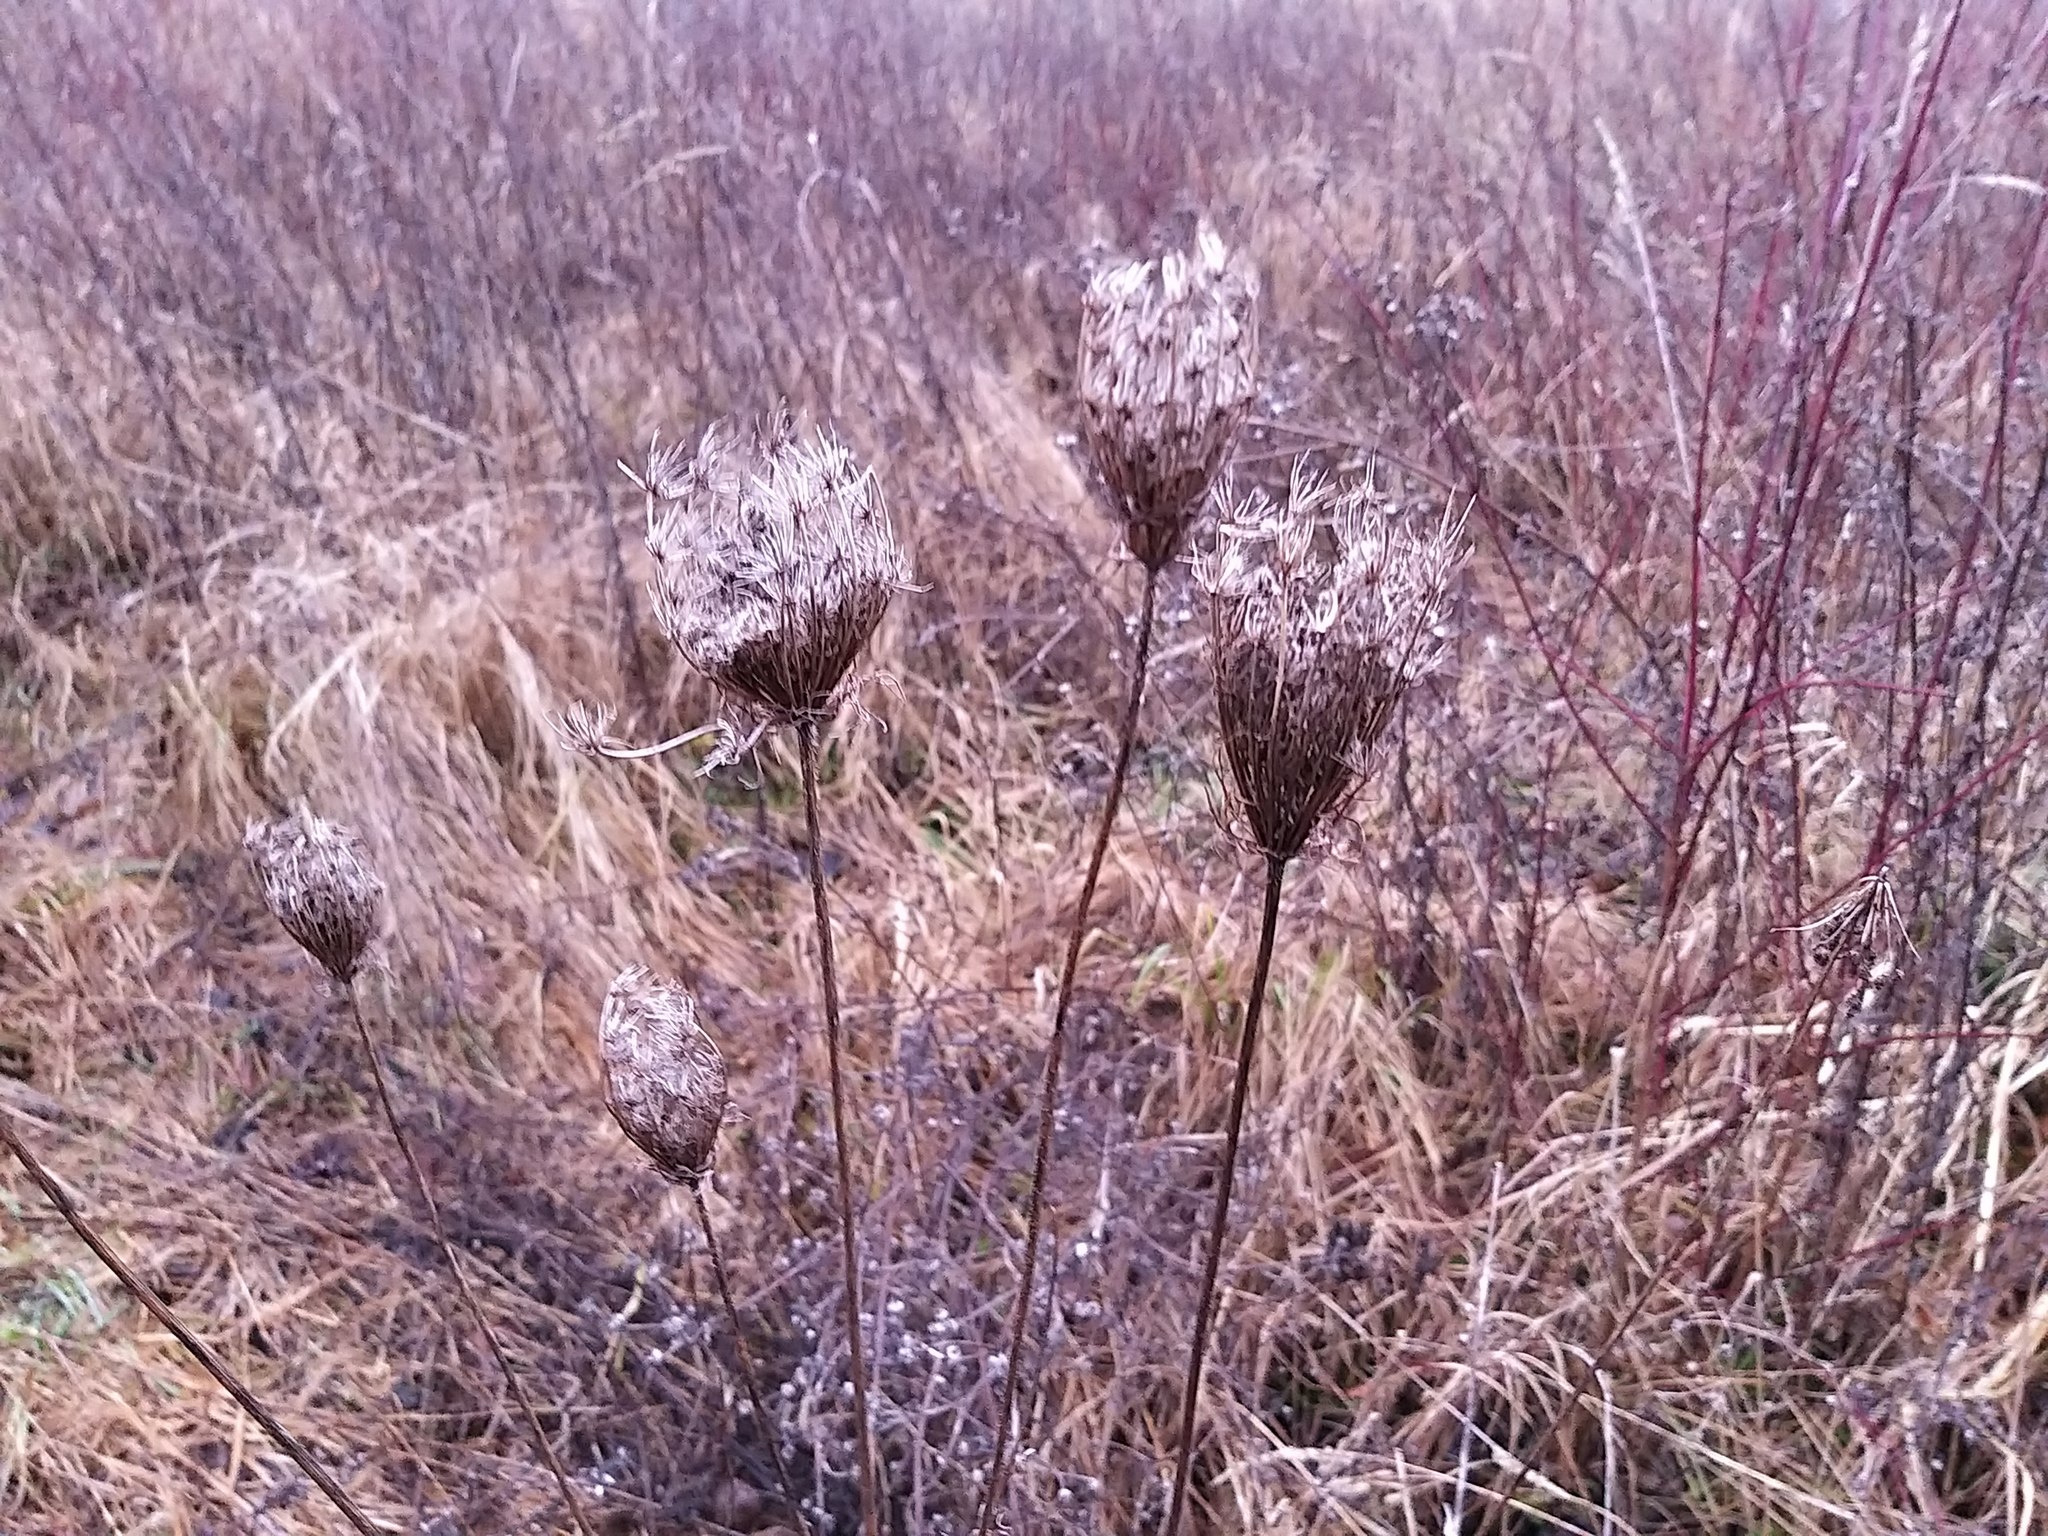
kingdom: Plantae
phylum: Tracheophyta
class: Magnoliopsida
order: Apiales
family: Apiaceae
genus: Daucus
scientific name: Daucus carota
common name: Wild carrot
